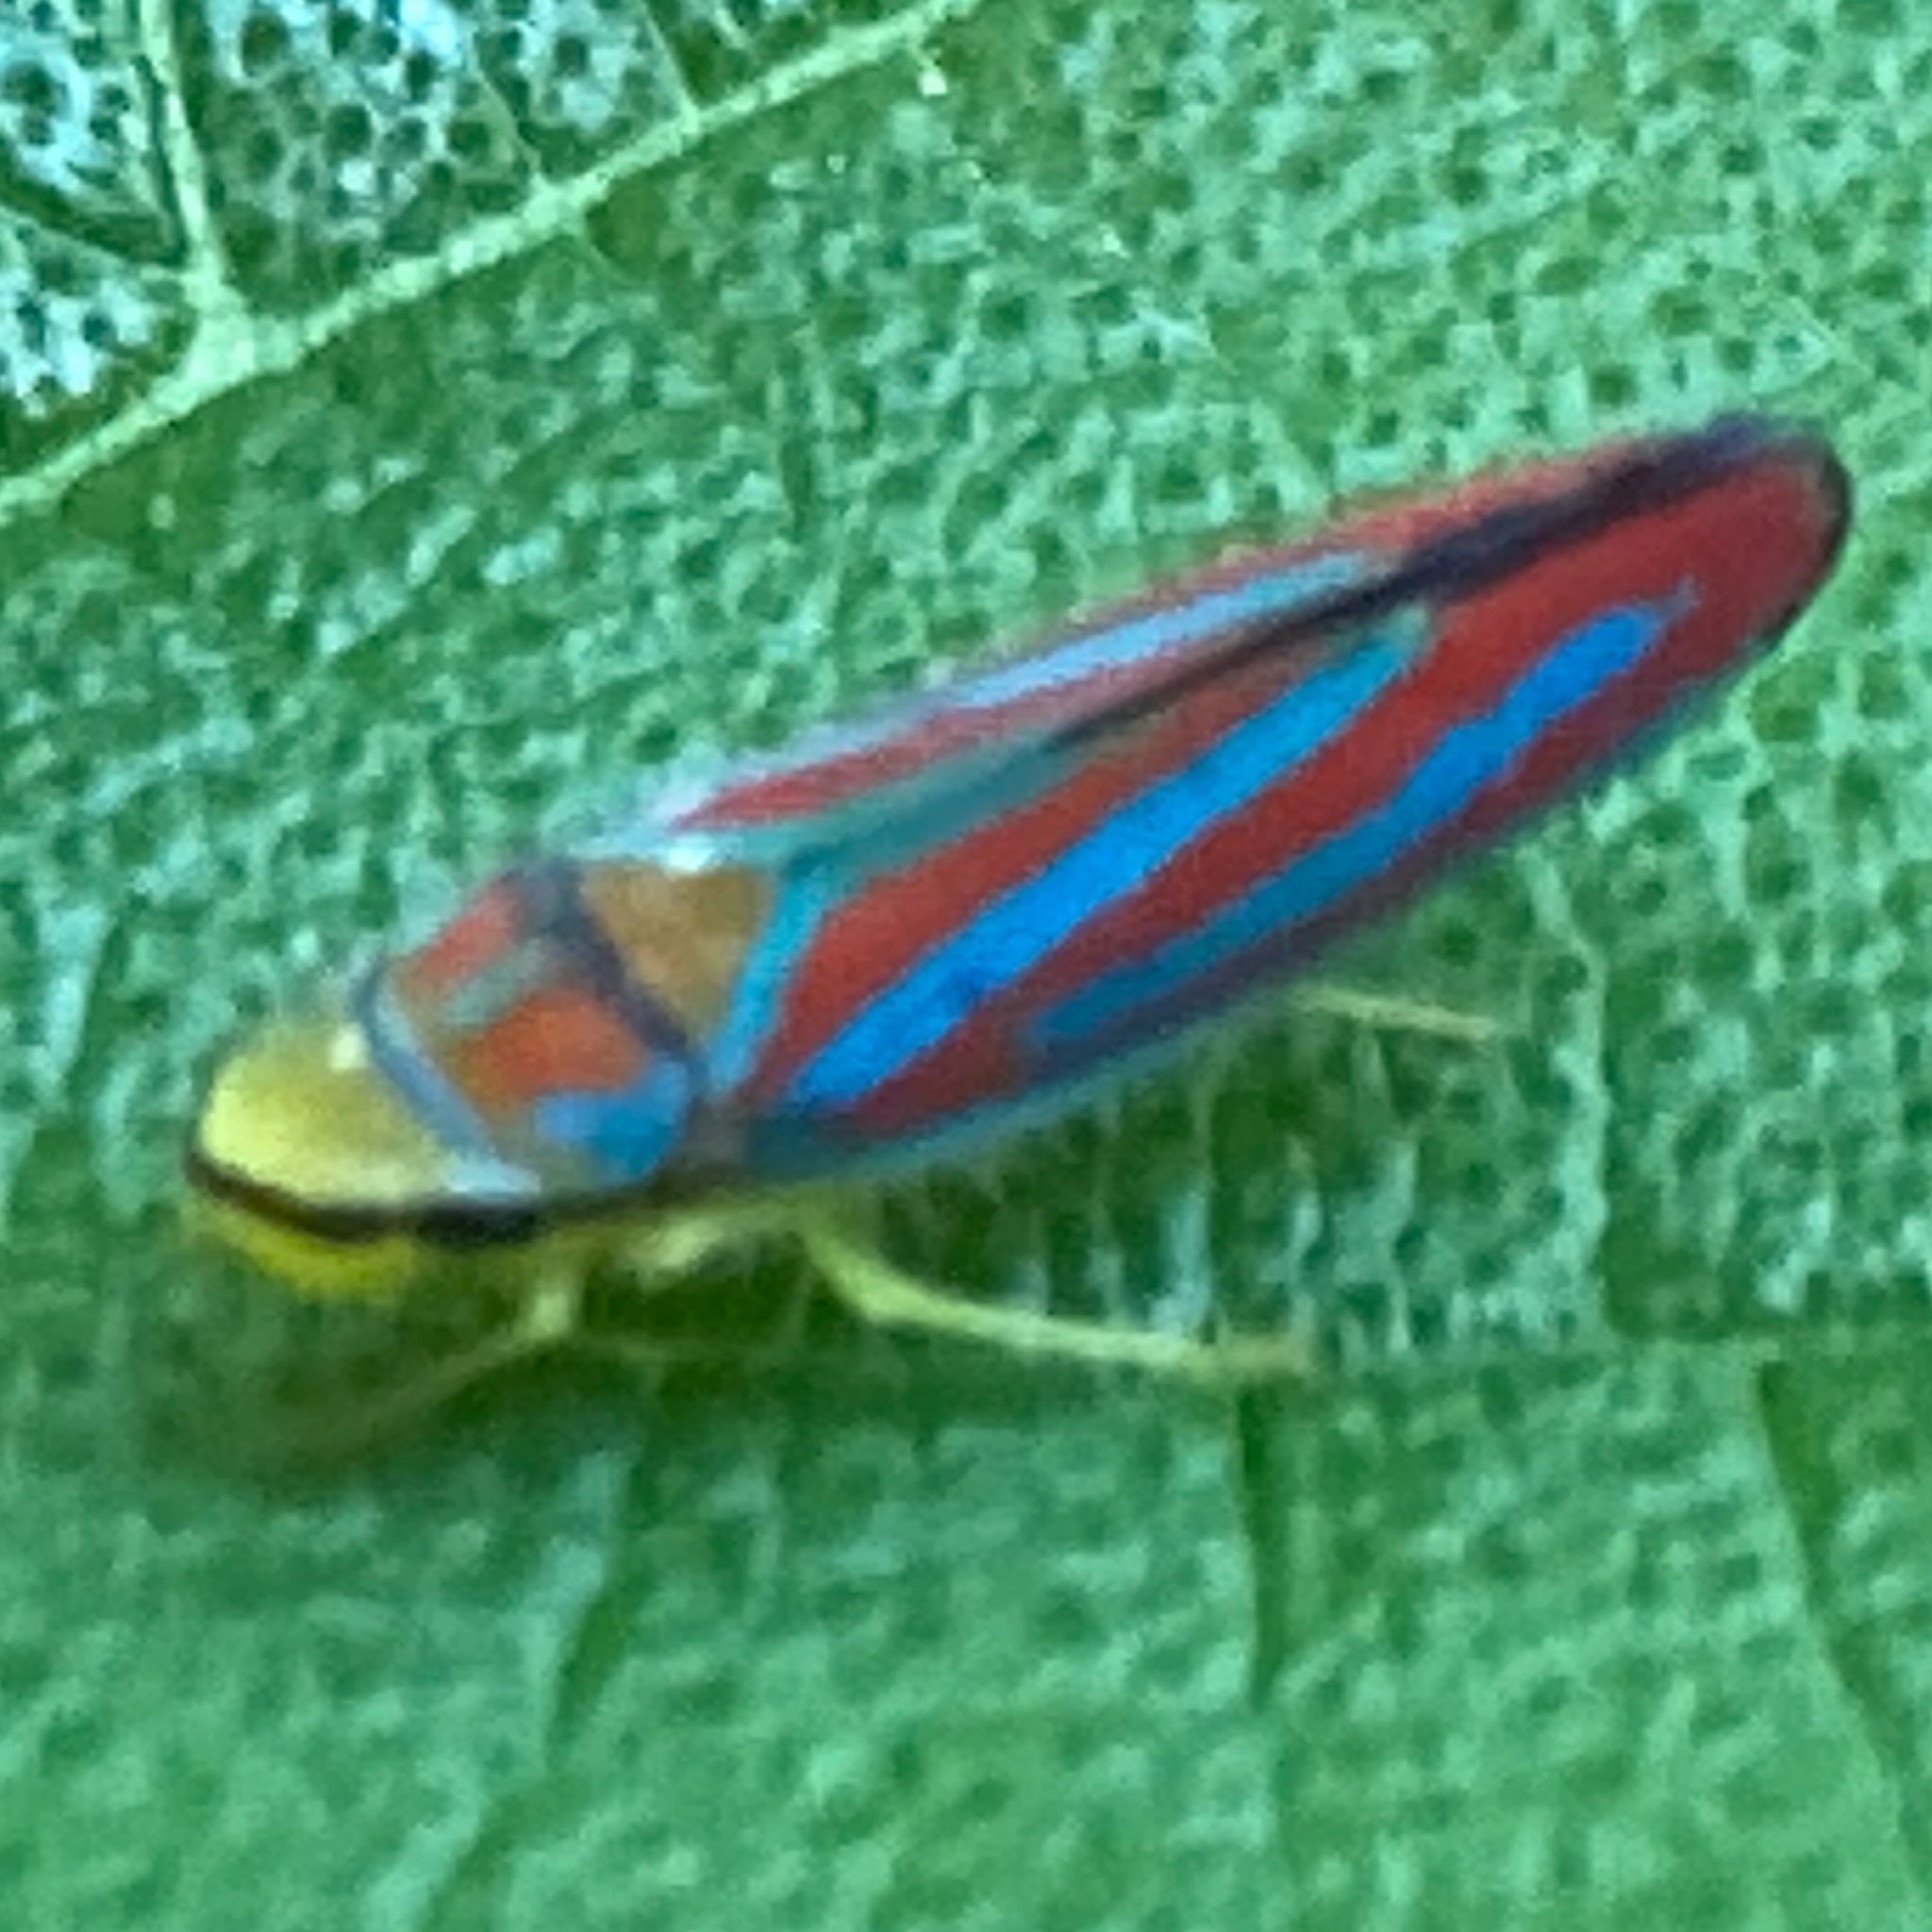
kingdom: Animalia
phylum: Arthropoda
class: Insecta
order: Hemiptera
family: Cicadellidae
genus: Graphocephala
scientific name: Graphocephala coccinea
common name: Candy-striped leafhopper
